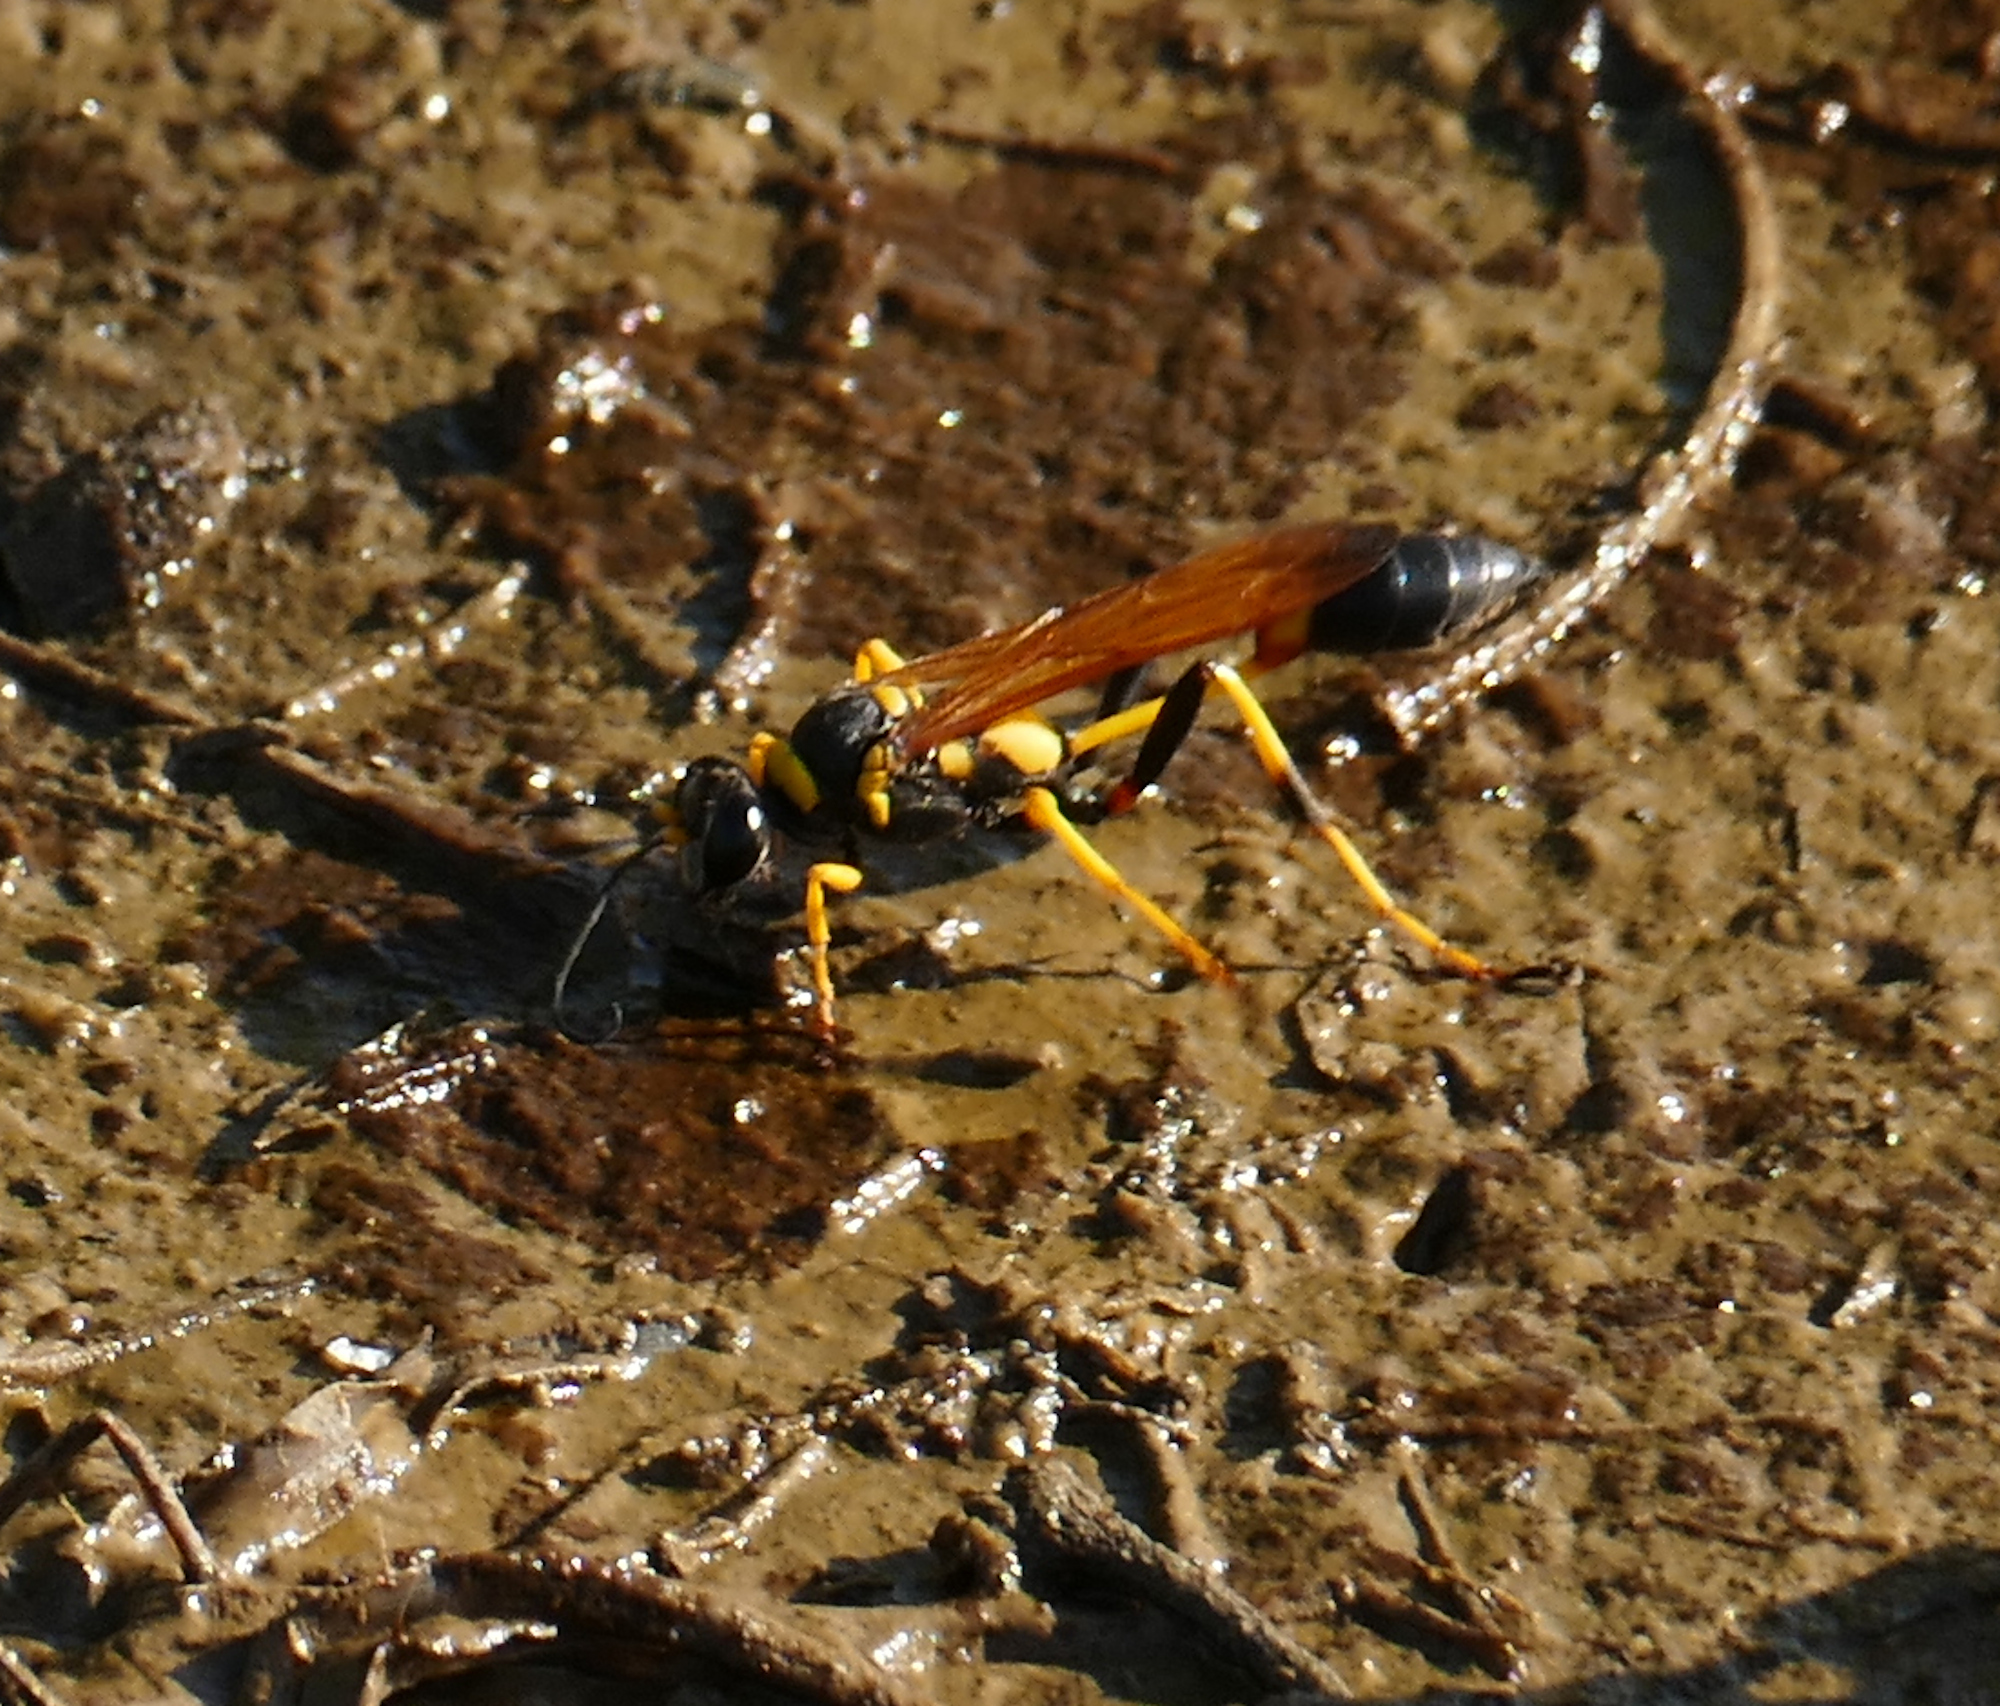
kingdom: Animalia
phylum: Arthropoda
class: Insecta
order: Hymenoptera
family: Sphecidae
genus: Sceliphron
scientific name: Sceliphron caementarium
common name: Mud dauber
